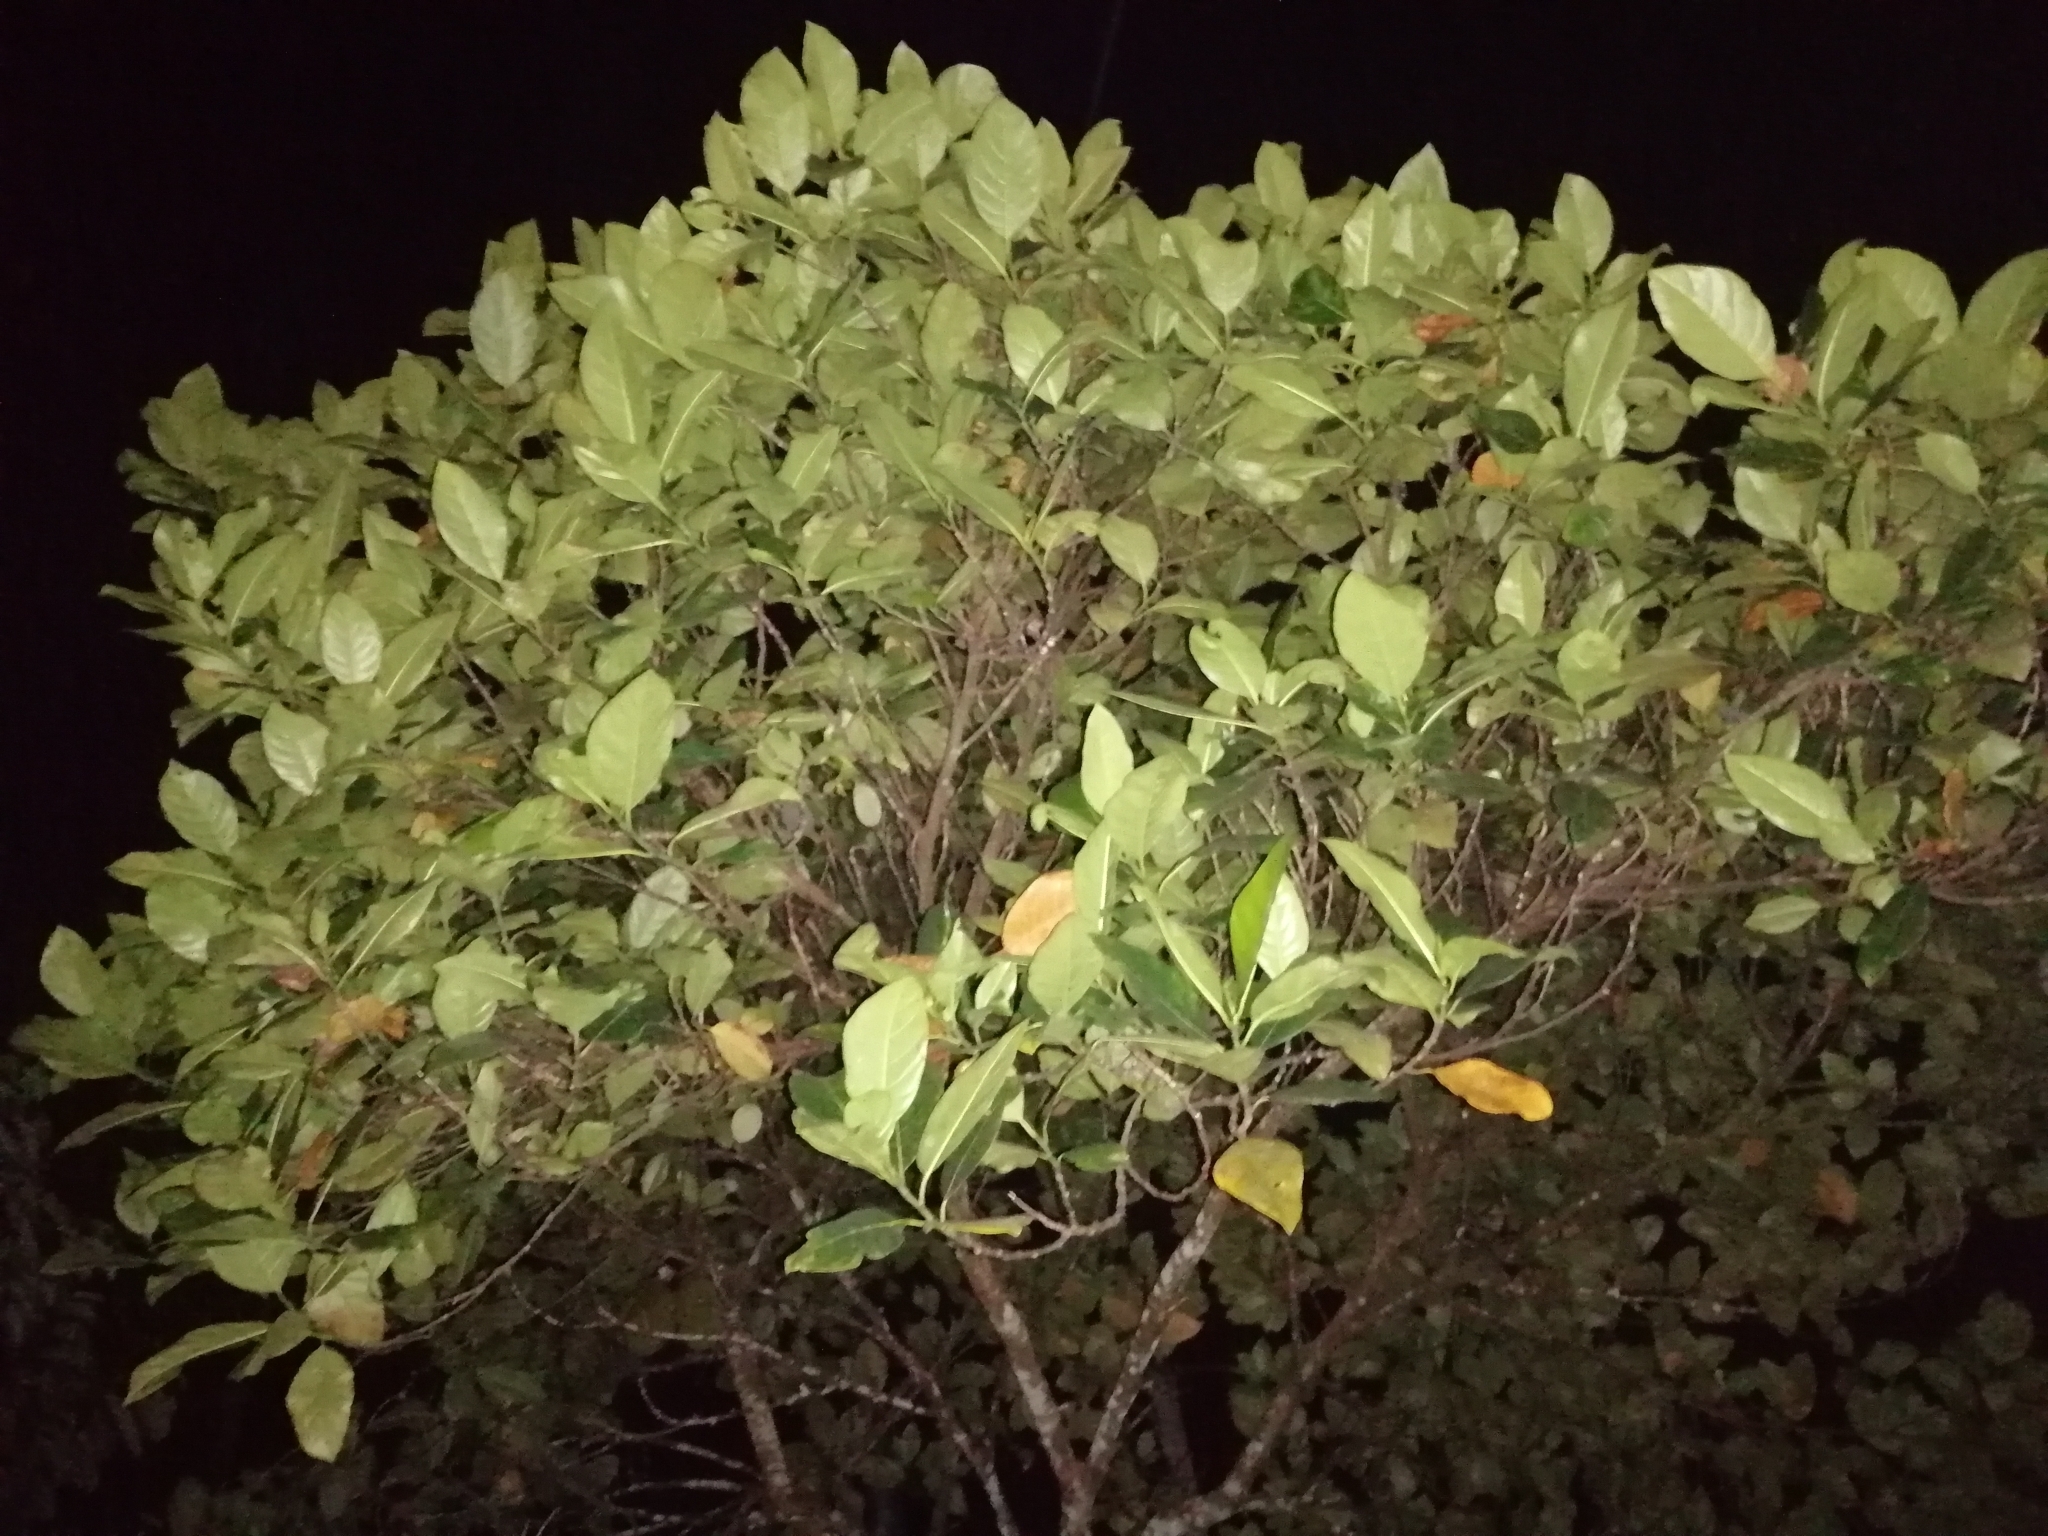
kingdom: Plantae
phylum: Tracheophyta
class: Magnoliopsida
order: Rosales
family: Moraceae
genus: Artocarpus
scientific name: Artocarpus heterophyllus
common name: Jackfruit
